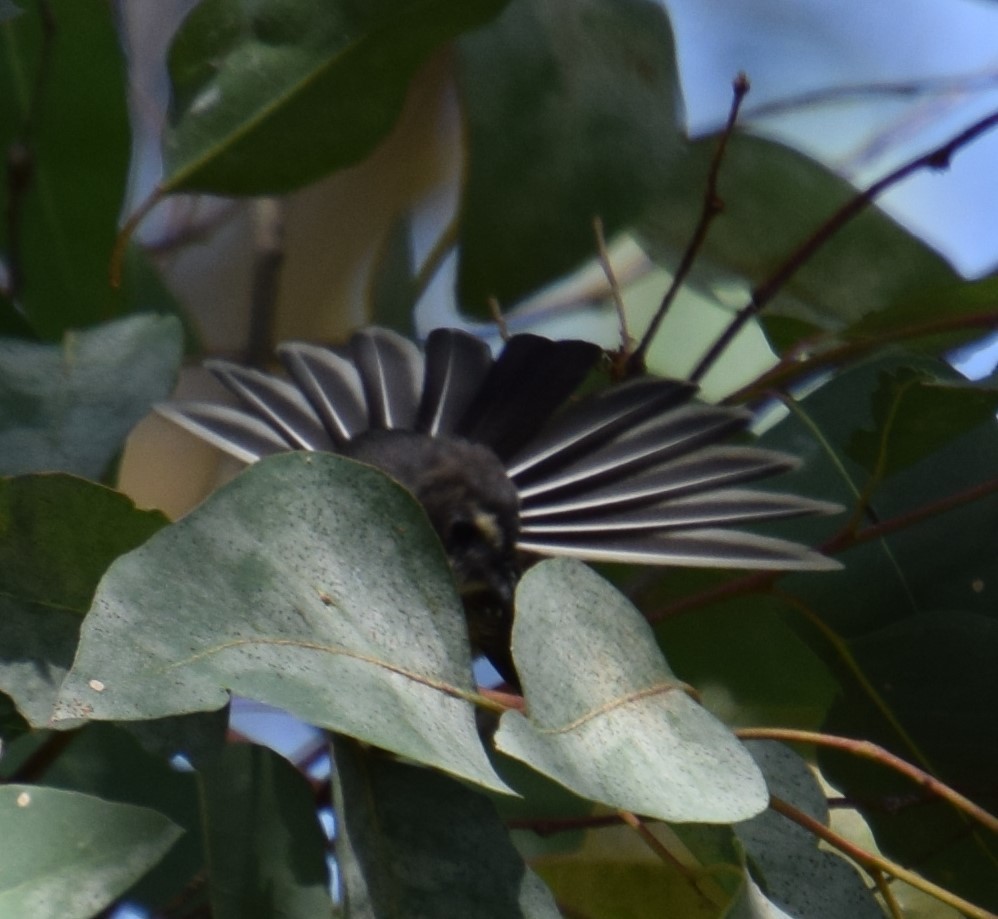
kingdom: Animalia
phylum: Chordata
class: Aves
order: Passeriformes
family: Rhipiduridae
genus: Rhipidura
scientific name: Rhipidura albiscapa
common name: Grey fantail
